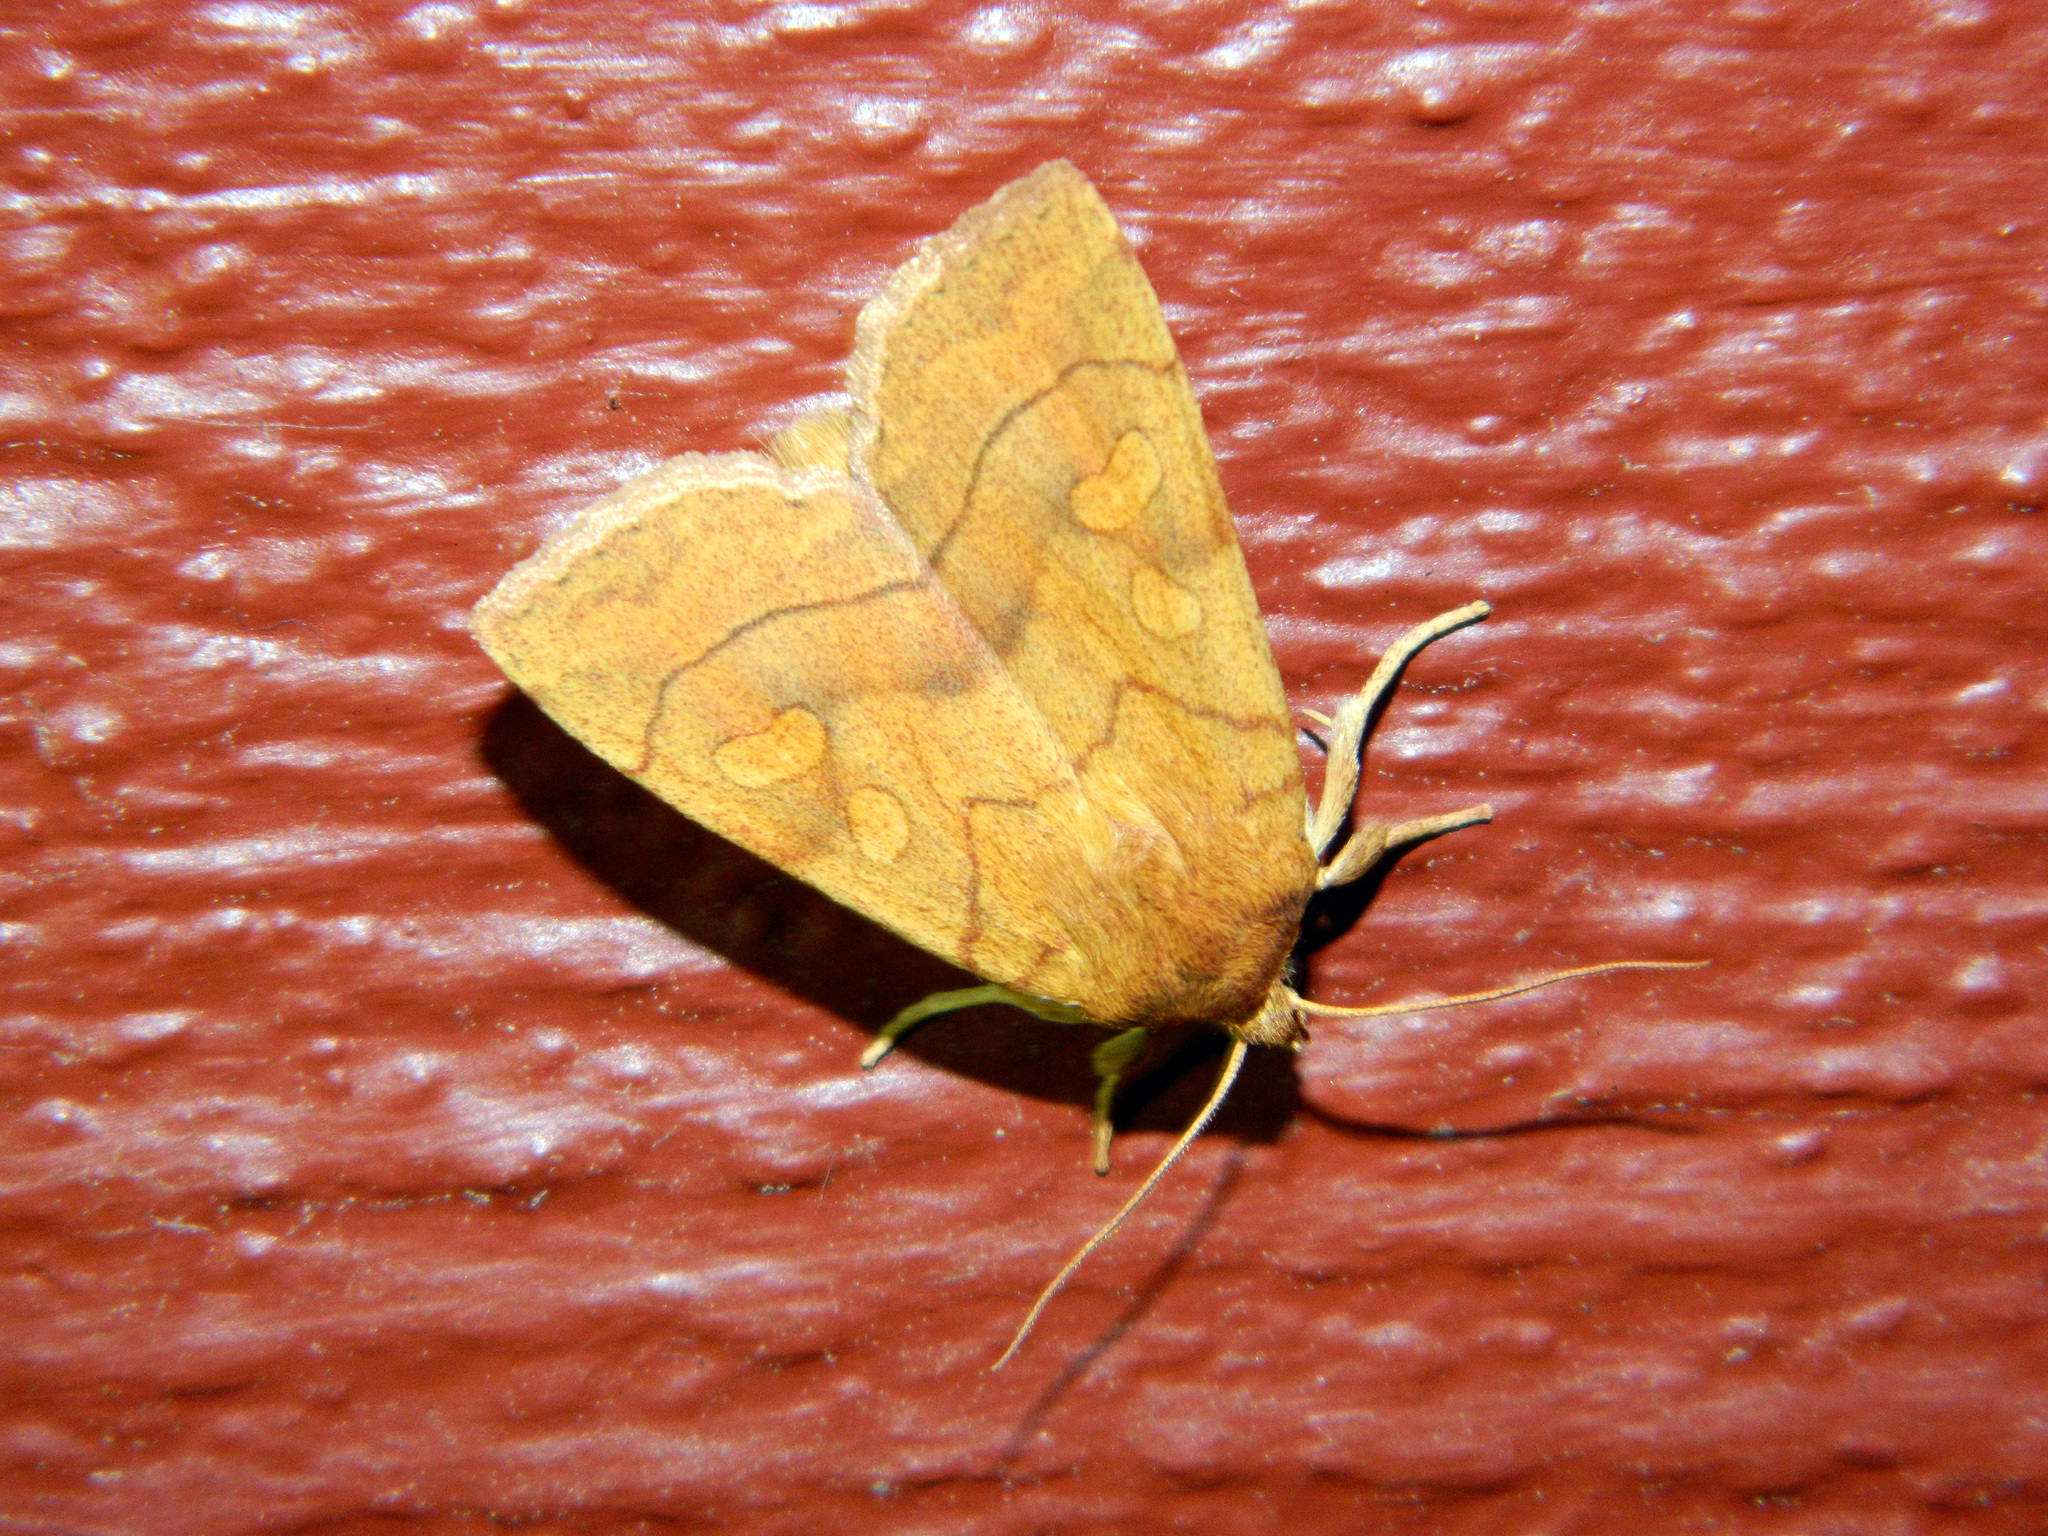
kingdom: Animalia
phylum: Arthropoda
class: Insecta
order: Lepidoptera
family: Noctuidae
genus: Enargia
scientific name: Enargia decolor
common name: Aspen twoleaf tier moth
